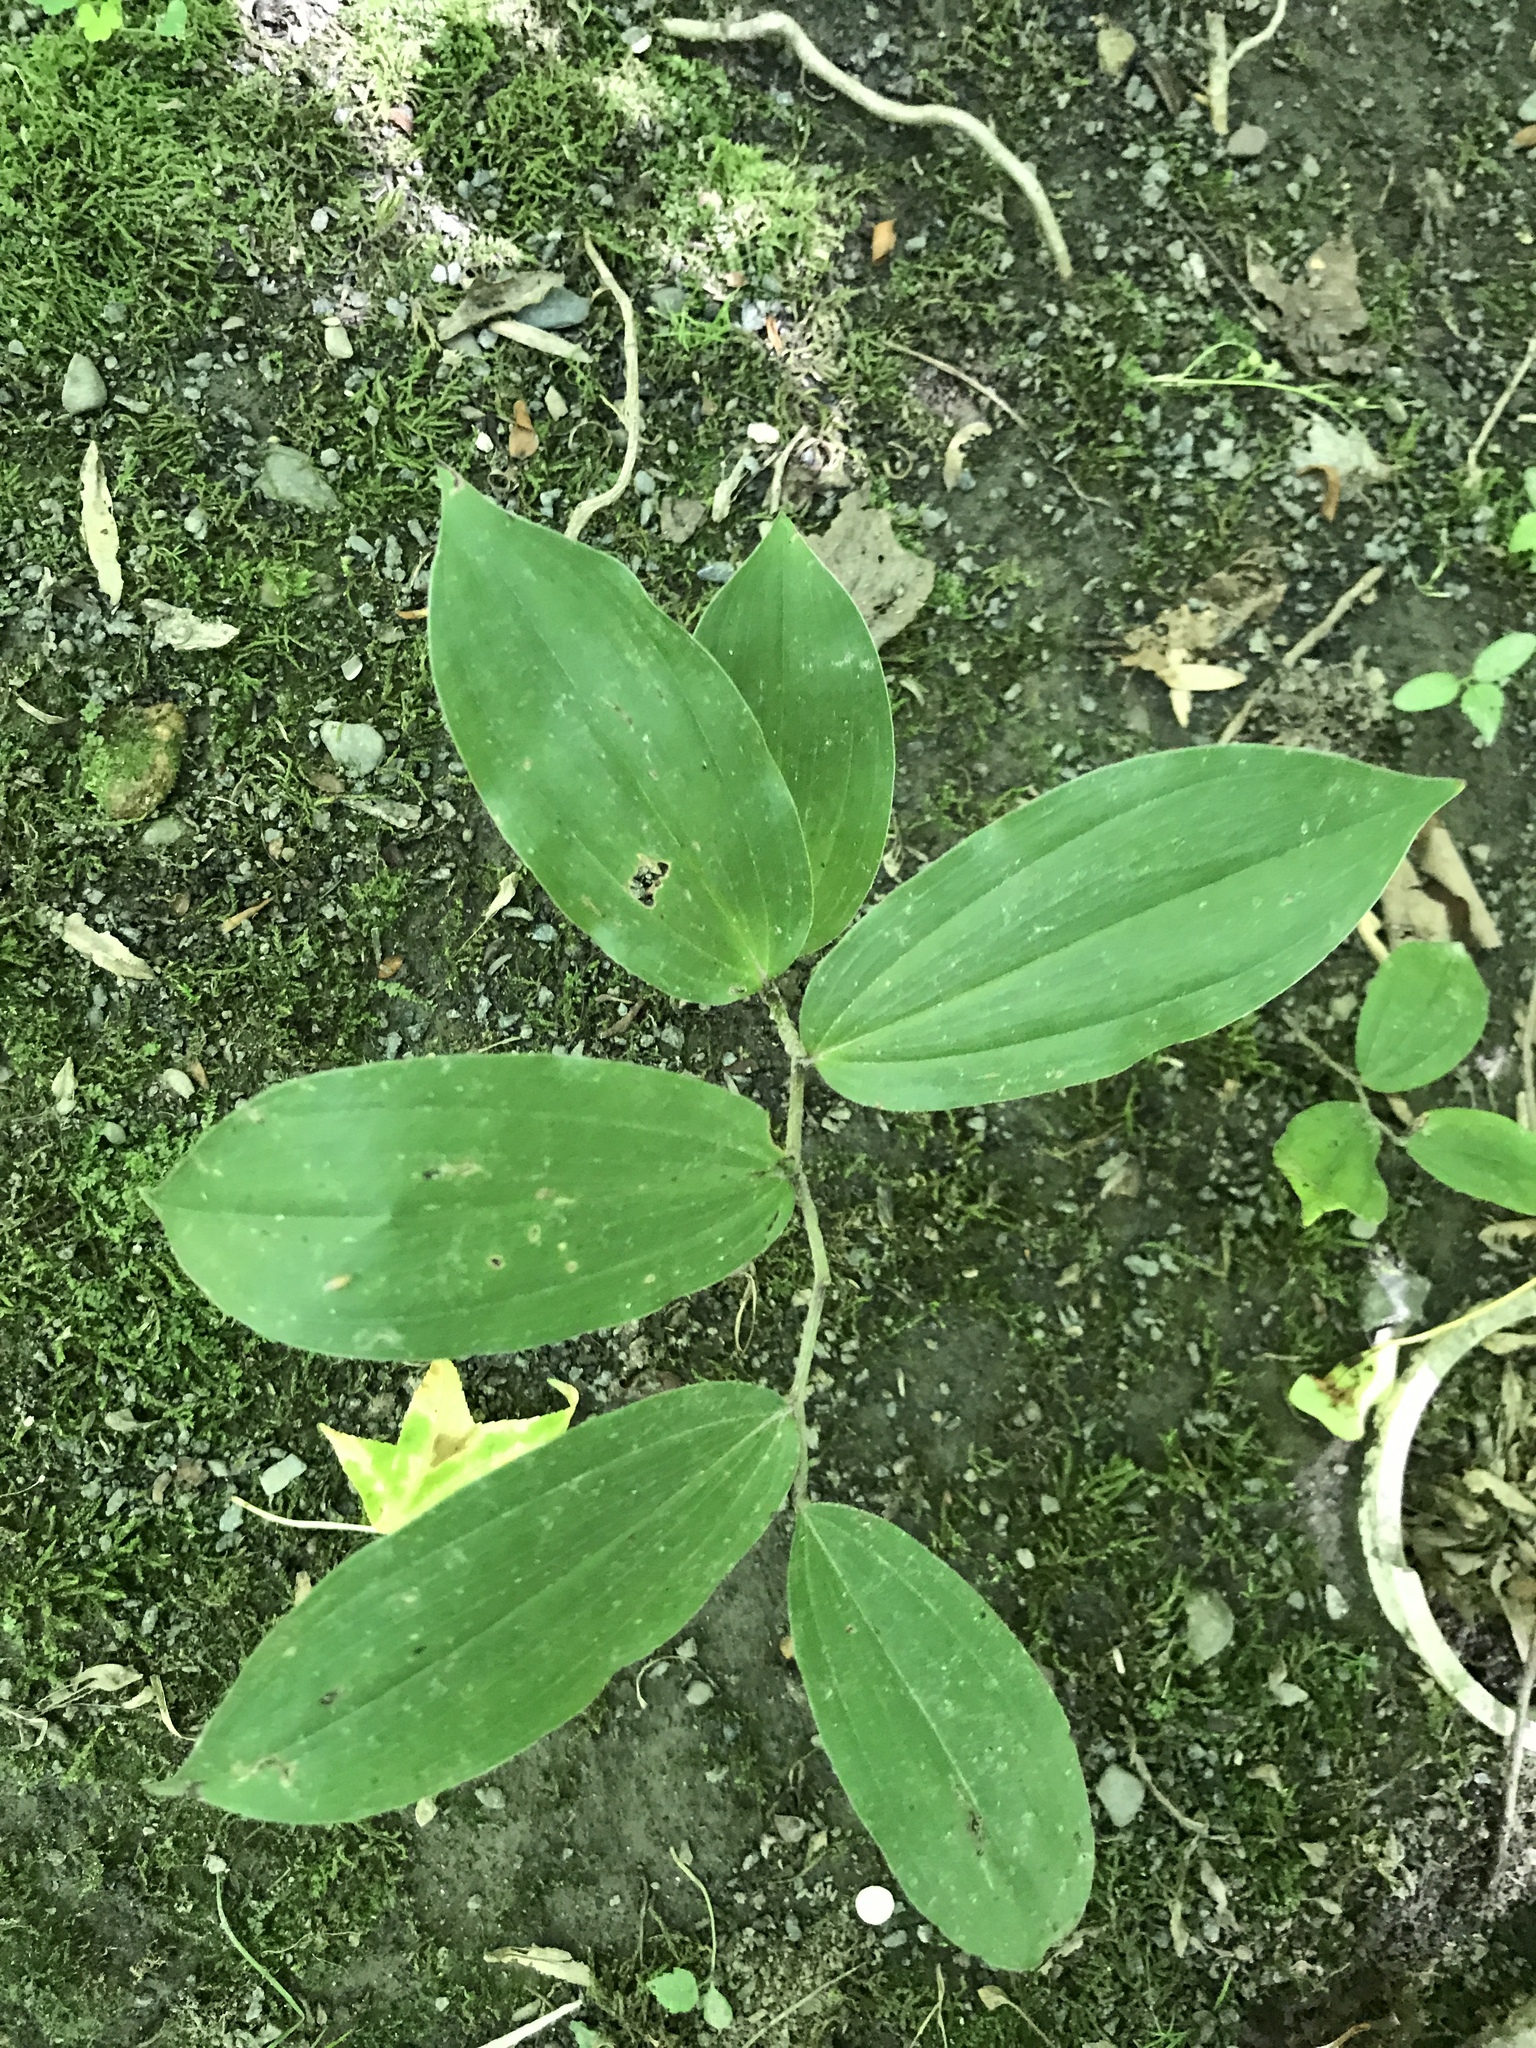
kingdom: Plantae
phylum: Tracheophyta
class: Liliopsida
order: Asparagales
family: Asparagaceae
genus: Maianthemum
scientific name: Maianthemum racemosum
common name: False spikenard
